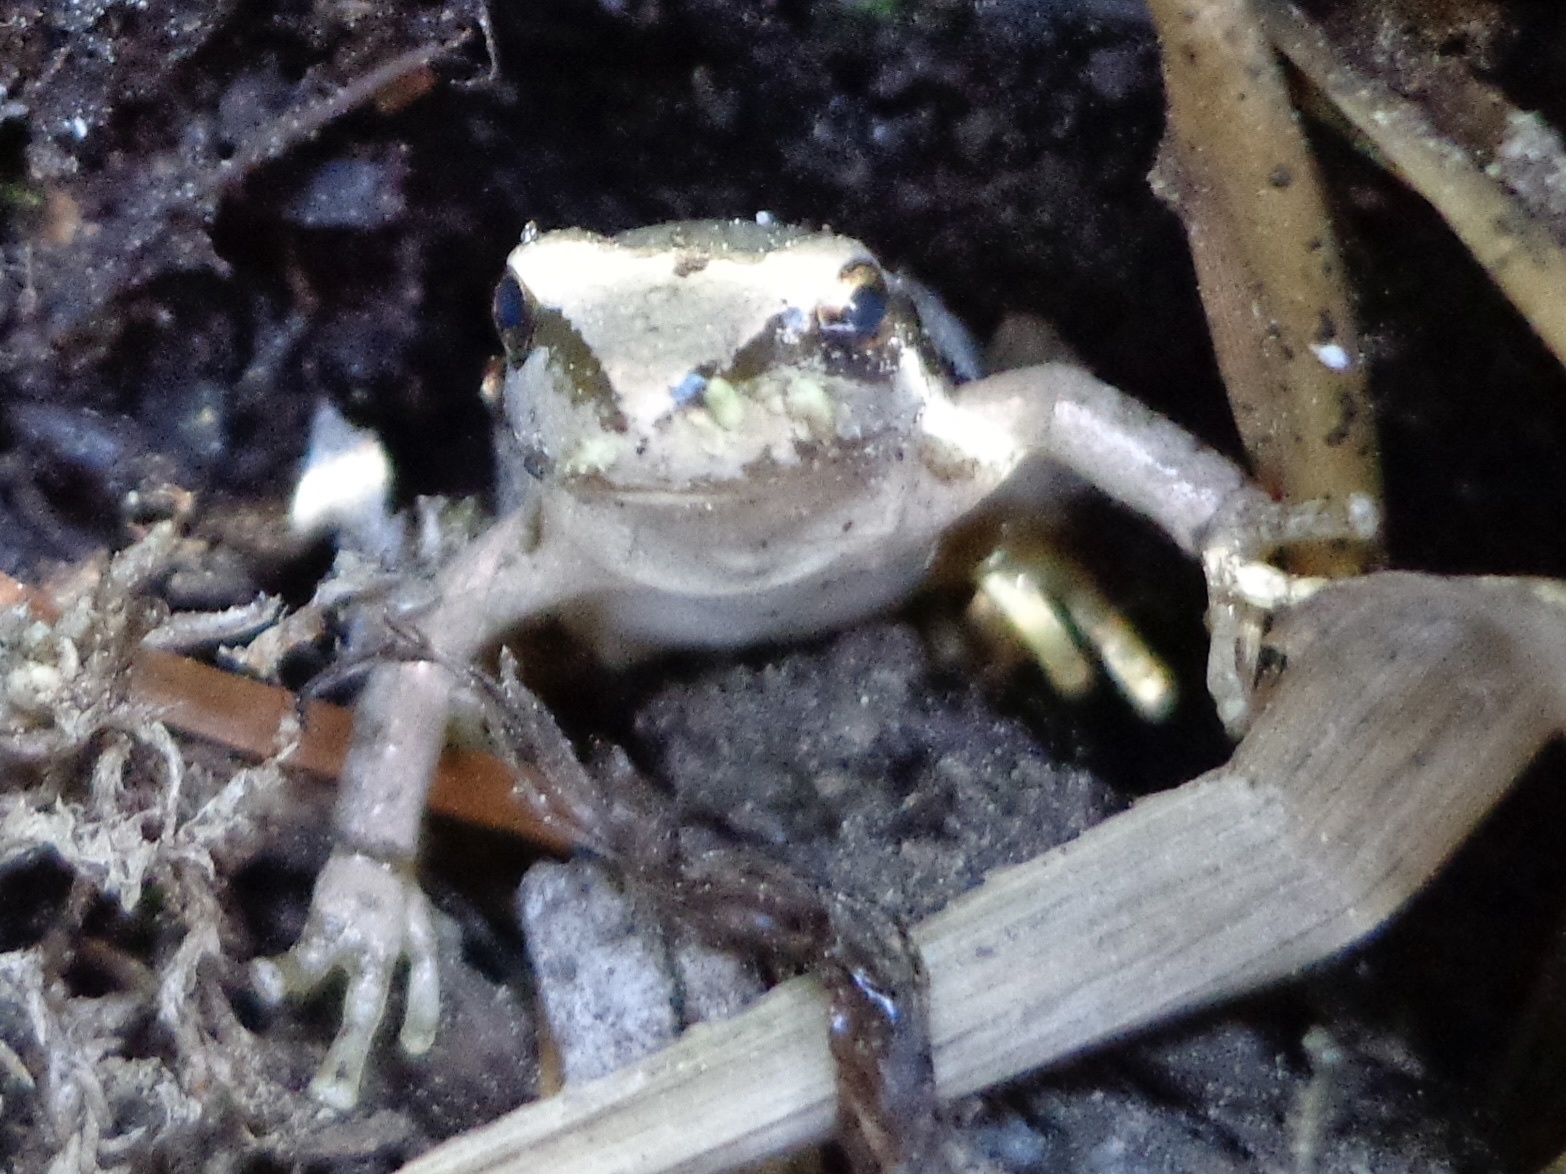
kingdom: Animalia
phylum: Chordata
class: Amphibia
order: Anura
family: Hylidae
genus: Pseudacris
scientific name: Pseudacris regilla
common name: Pacific chorus frog
